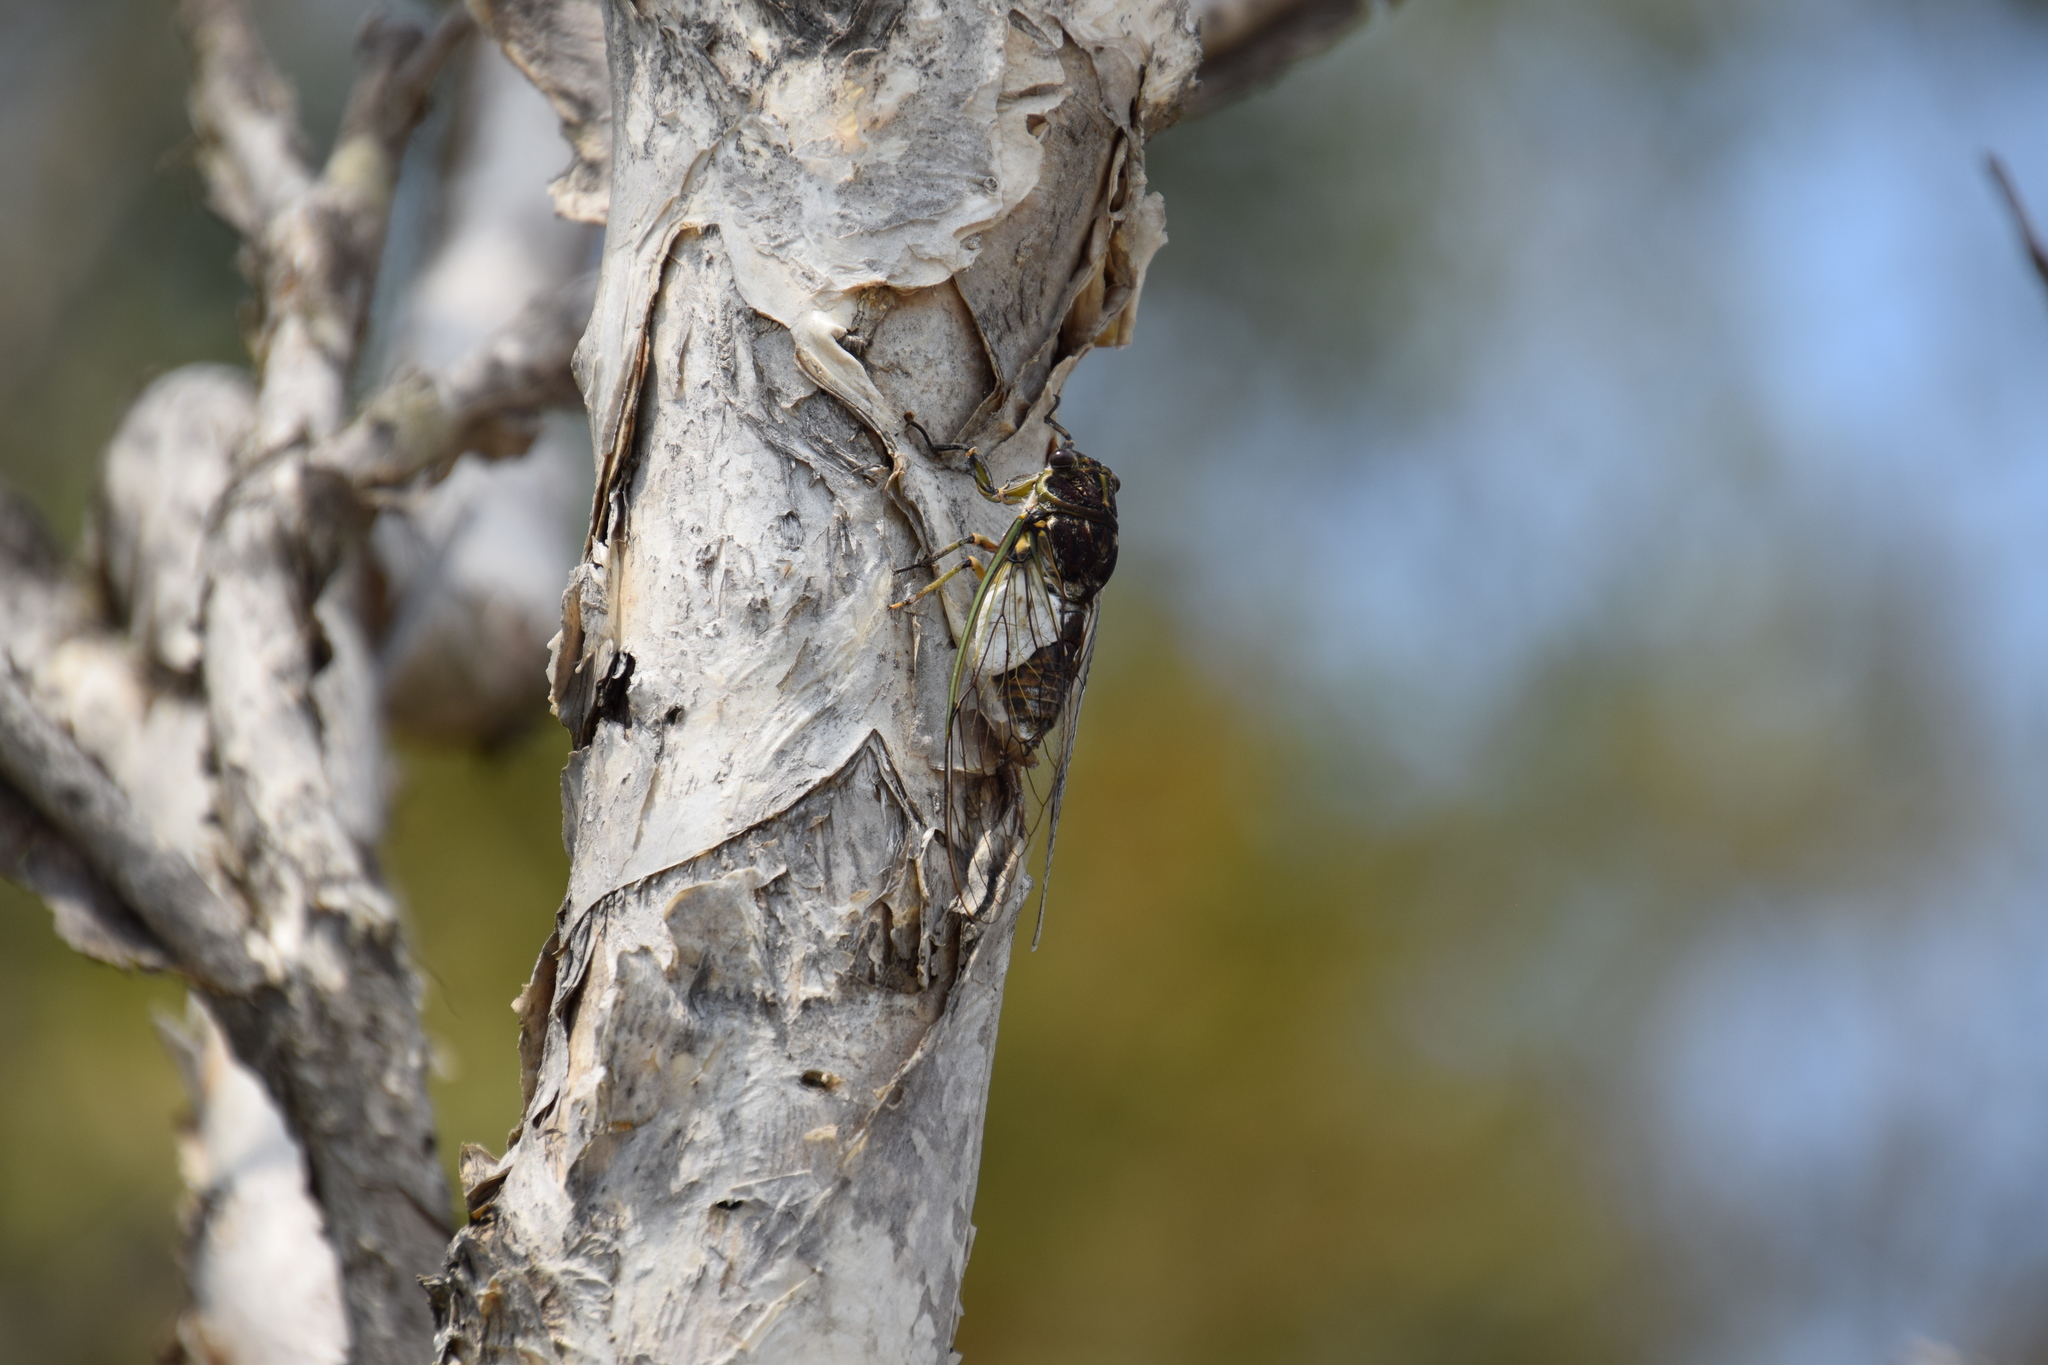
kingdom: Animalia
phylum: Arthropoda
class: Insecta
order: Hemiptera
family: Cicadidae
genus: Arunta
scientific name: Arunta perulata
